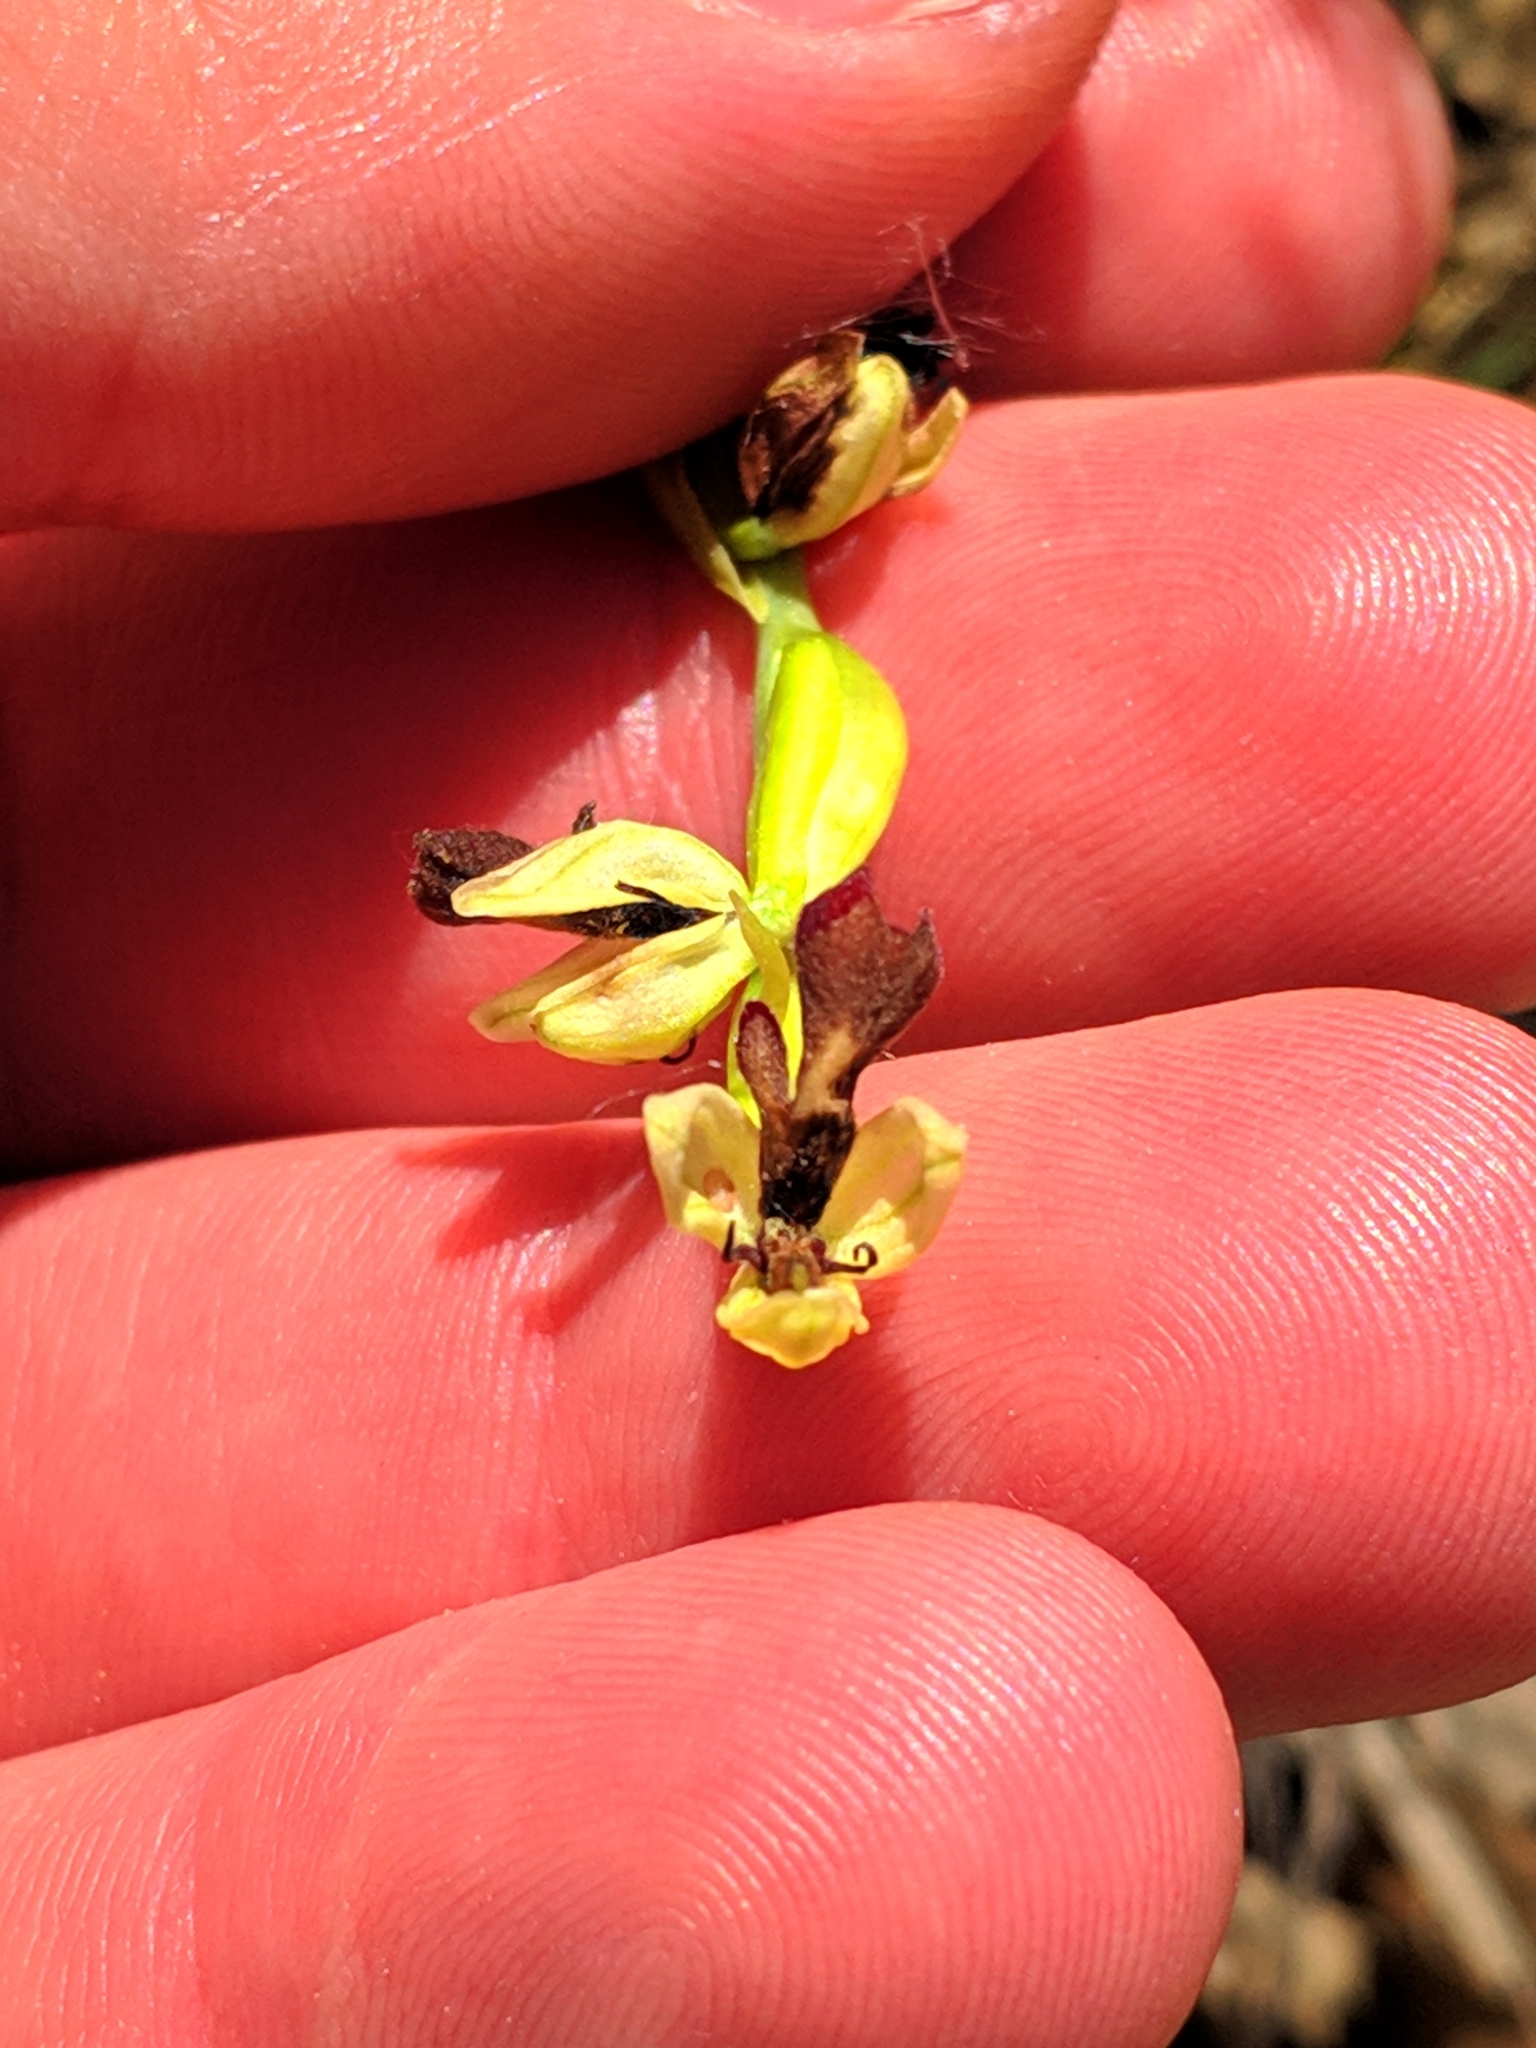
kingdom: Plantae
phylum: Tracheophyta
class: Liliopsida
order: Asparagales
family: Orchidaceae
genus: Ophrys
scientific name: Ophrys insectifera
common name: Fly orchid
